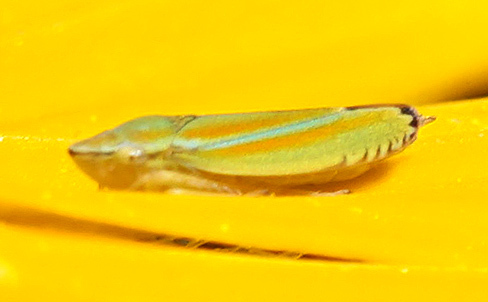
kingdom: Animalia
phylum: Arthropoda
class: Insecta
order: Hemiptera
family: Cicadellidae
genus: Graphocephala
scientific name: Graphocephala versuta
